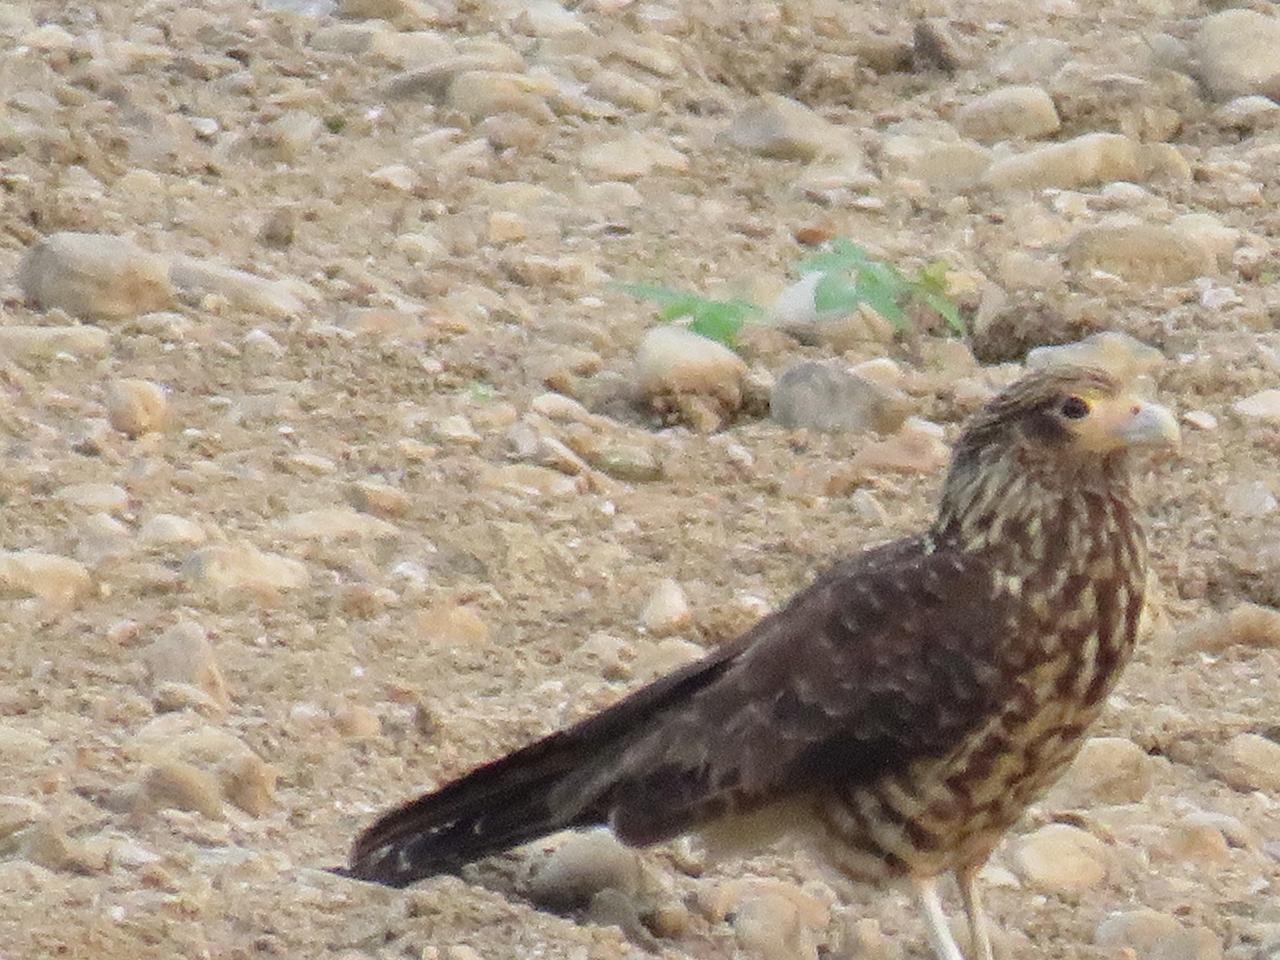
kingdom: Animalia
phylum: Chordata
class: Aves
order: Falconiformes
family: Falconidae
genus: Daptrius
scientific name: Daptrius
